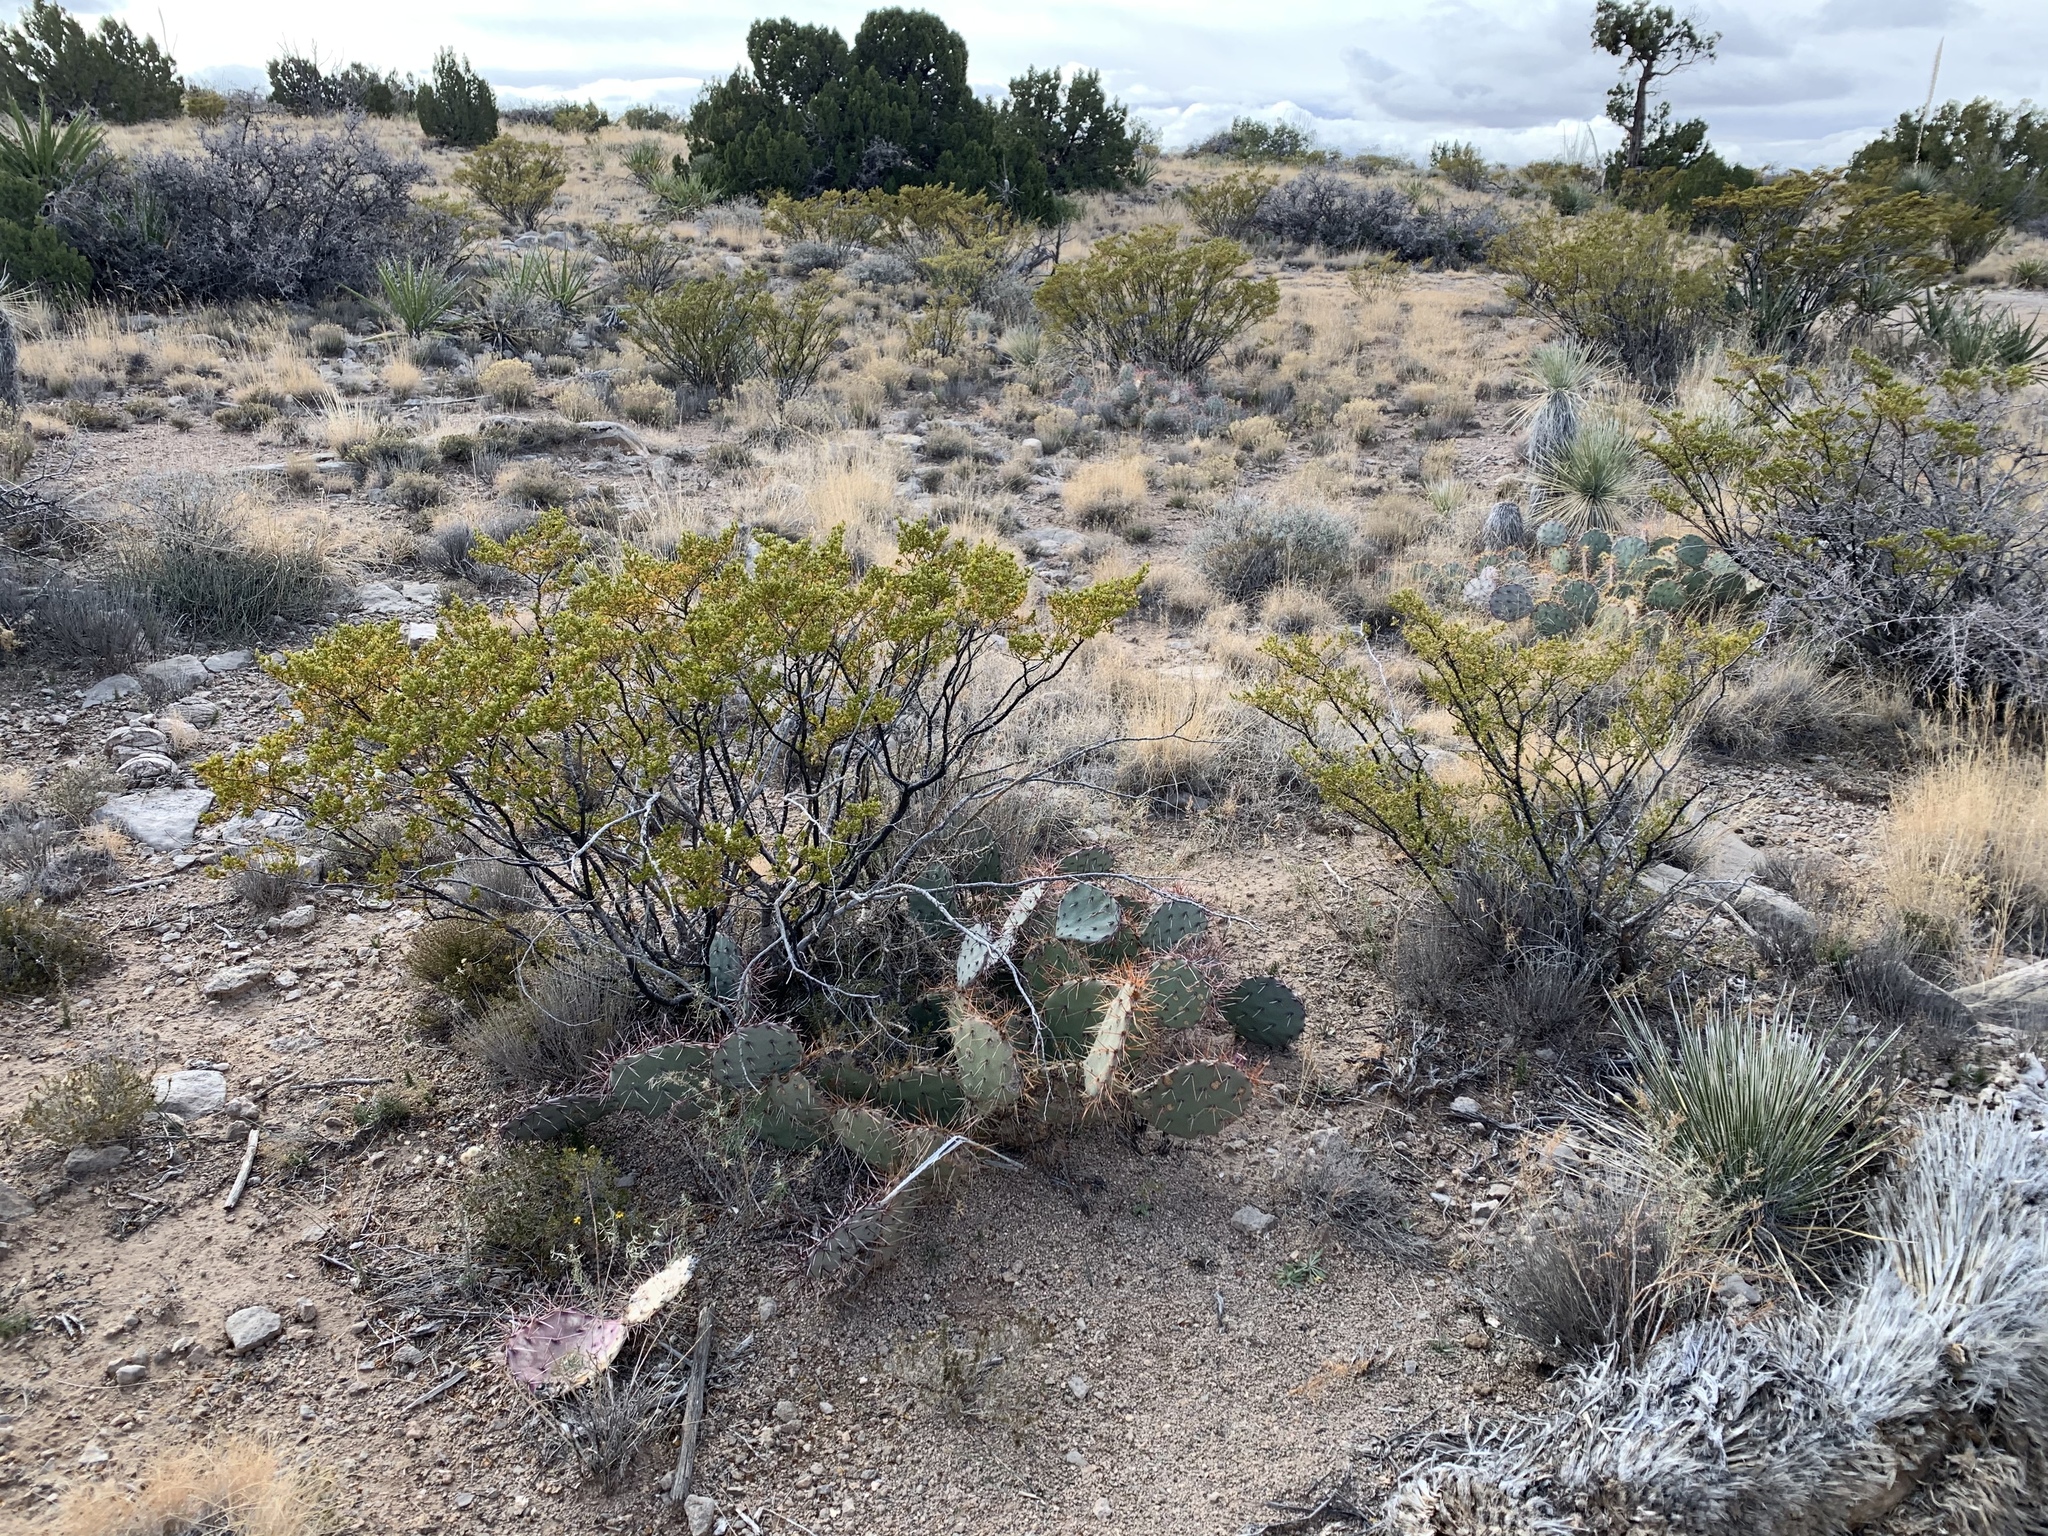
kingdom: Plantae
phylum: Tracheophyta
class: Magnoliopsida
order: Zygophyllales
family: Zygophyllaceae
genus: Larrea
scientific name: Larrea tridentata
